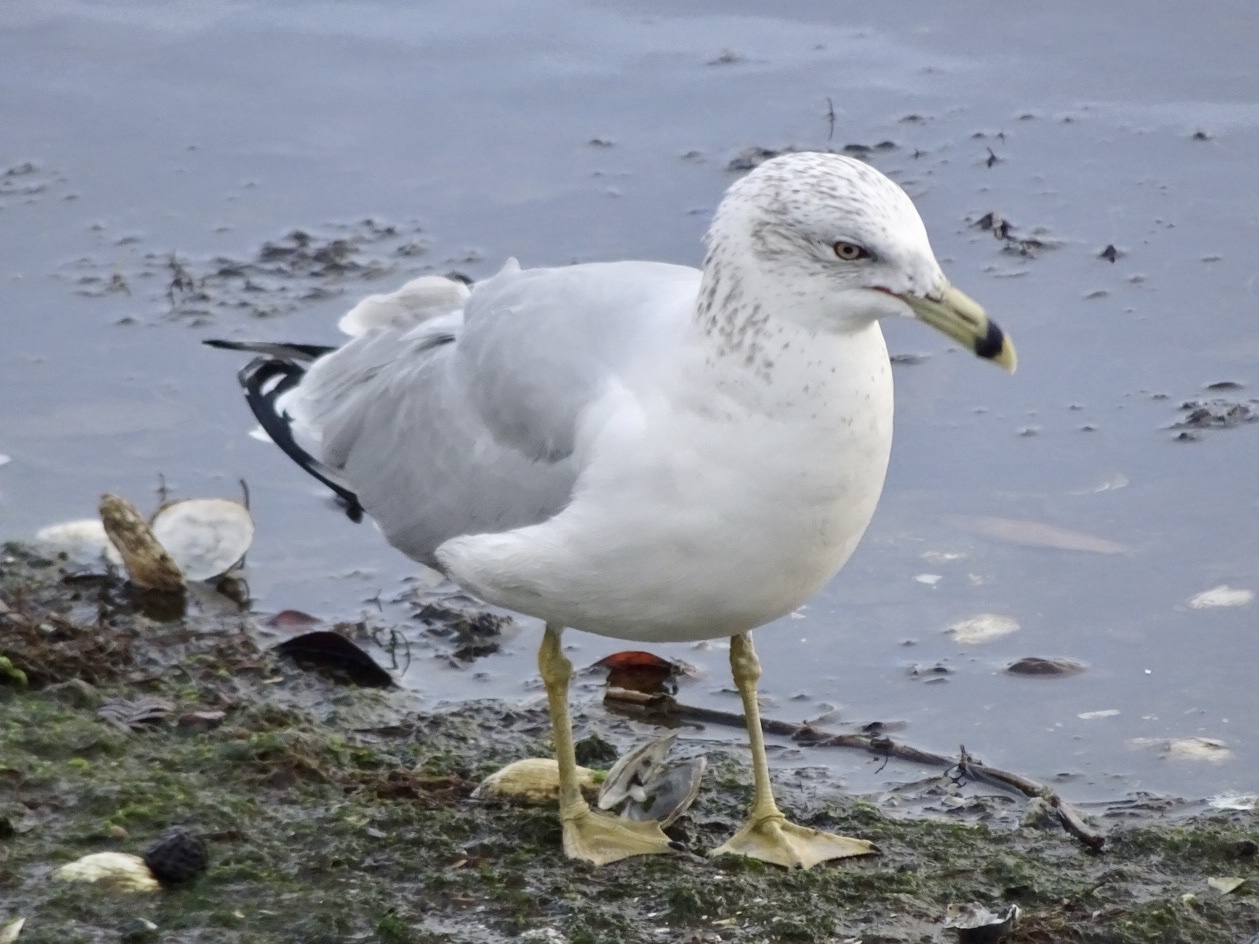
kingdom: Animalia
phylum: Chordata
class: Aves
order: Charadriiformes
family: Laridae
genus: Larus
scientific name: Larus delawarensis
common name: Ring-billed gull
